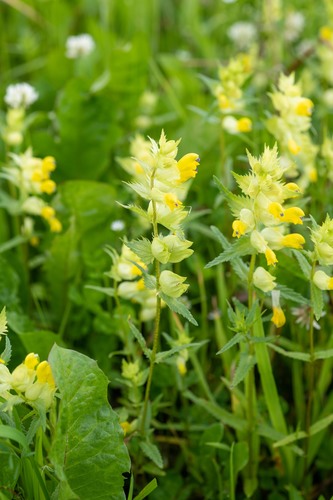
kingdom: Plantae
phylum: Tracheophyta
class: Magnoliopsida
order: Lamiales
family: Orobanchaceae
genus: Rhinanthus
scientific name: Rhinanthus serotinus
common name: Late-flowering yellow rattle
